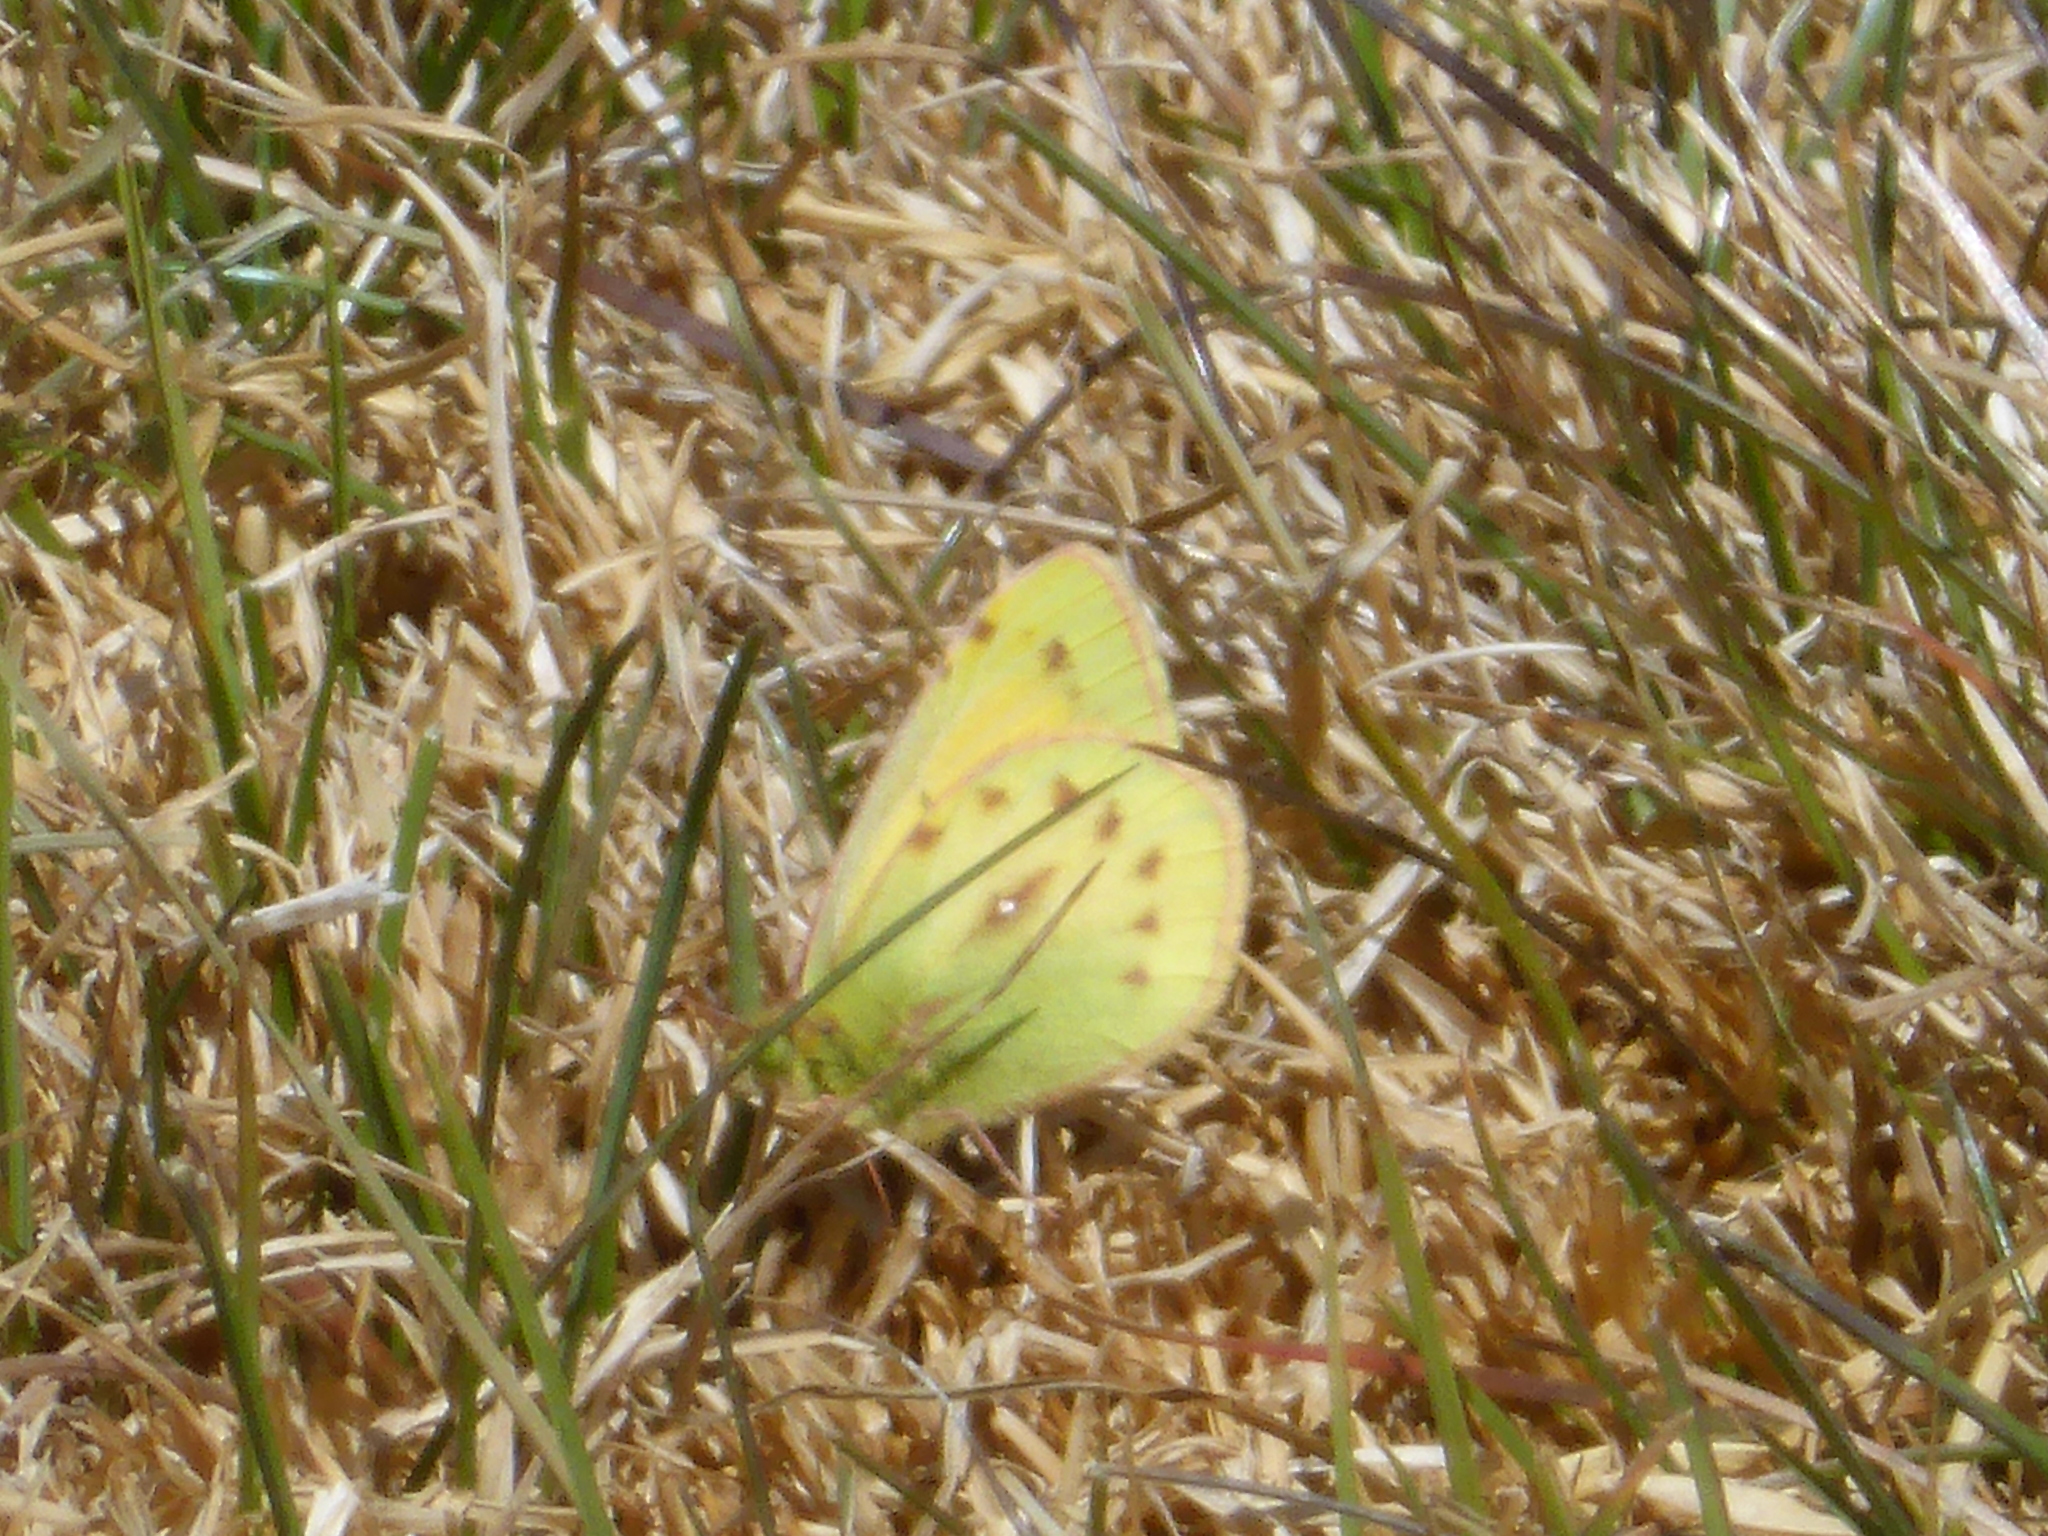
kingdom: Animalia
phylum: Arthropoda
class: Insecta
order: Lepidoptera
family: Pieridae
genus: Colias
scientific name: Colias euxanthe
